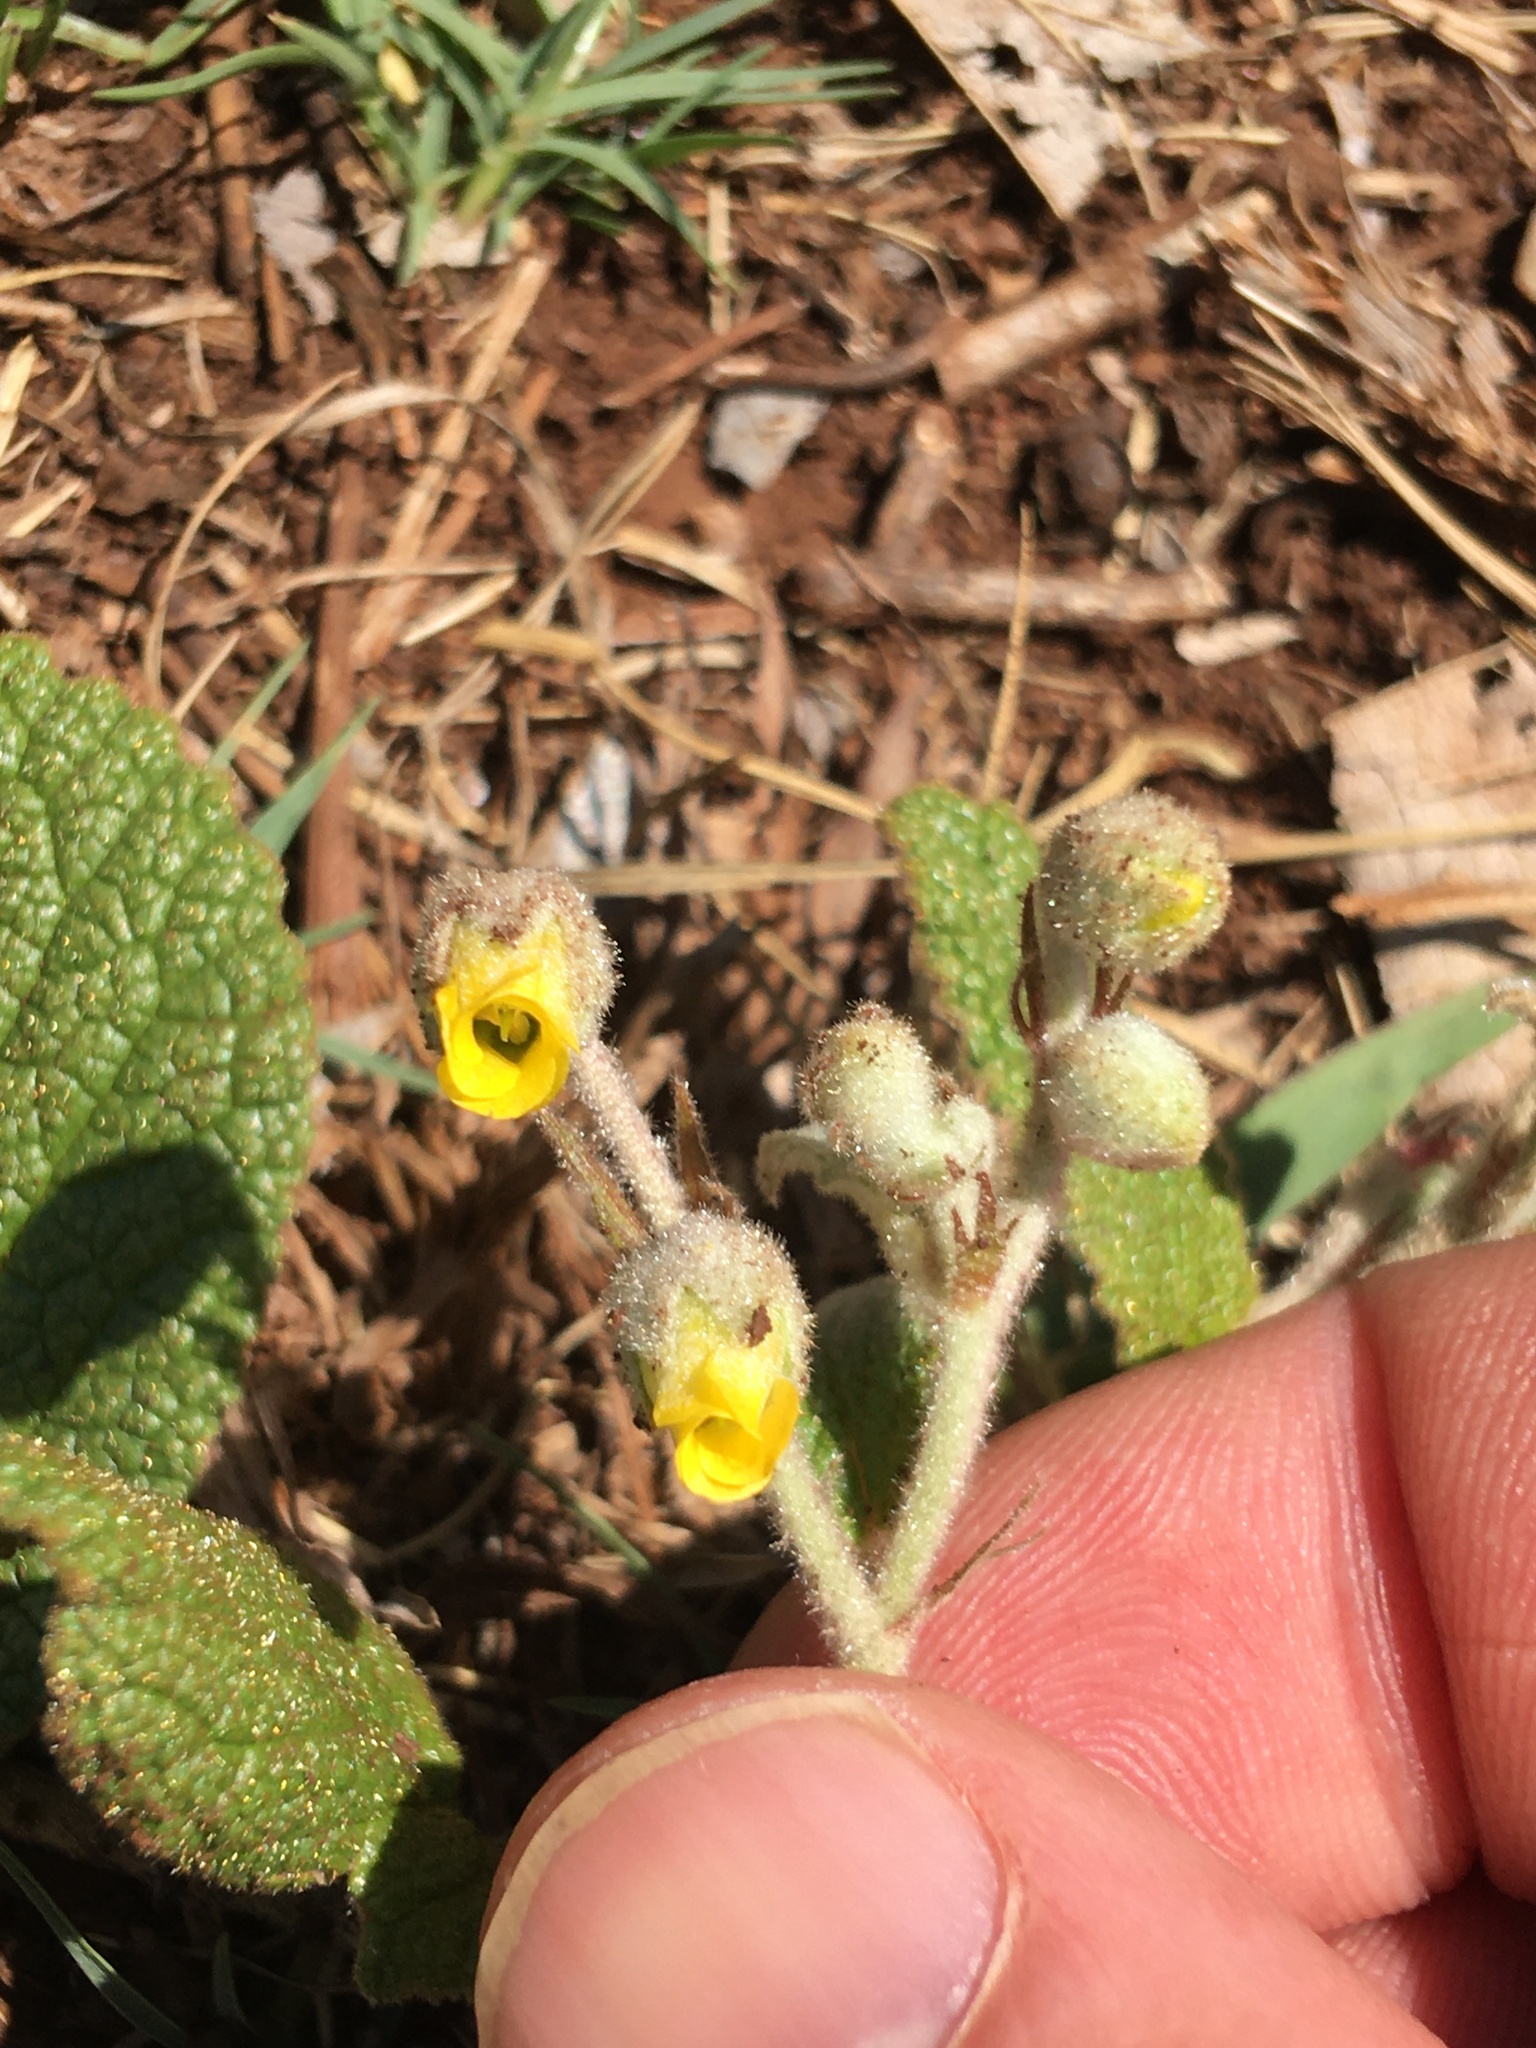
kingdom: Plantae
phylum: Tracheophyta
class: Magnoliopsida
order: Malvales
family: Malvaceae
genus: Hermannia
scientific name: Hermannia transvaalensis
